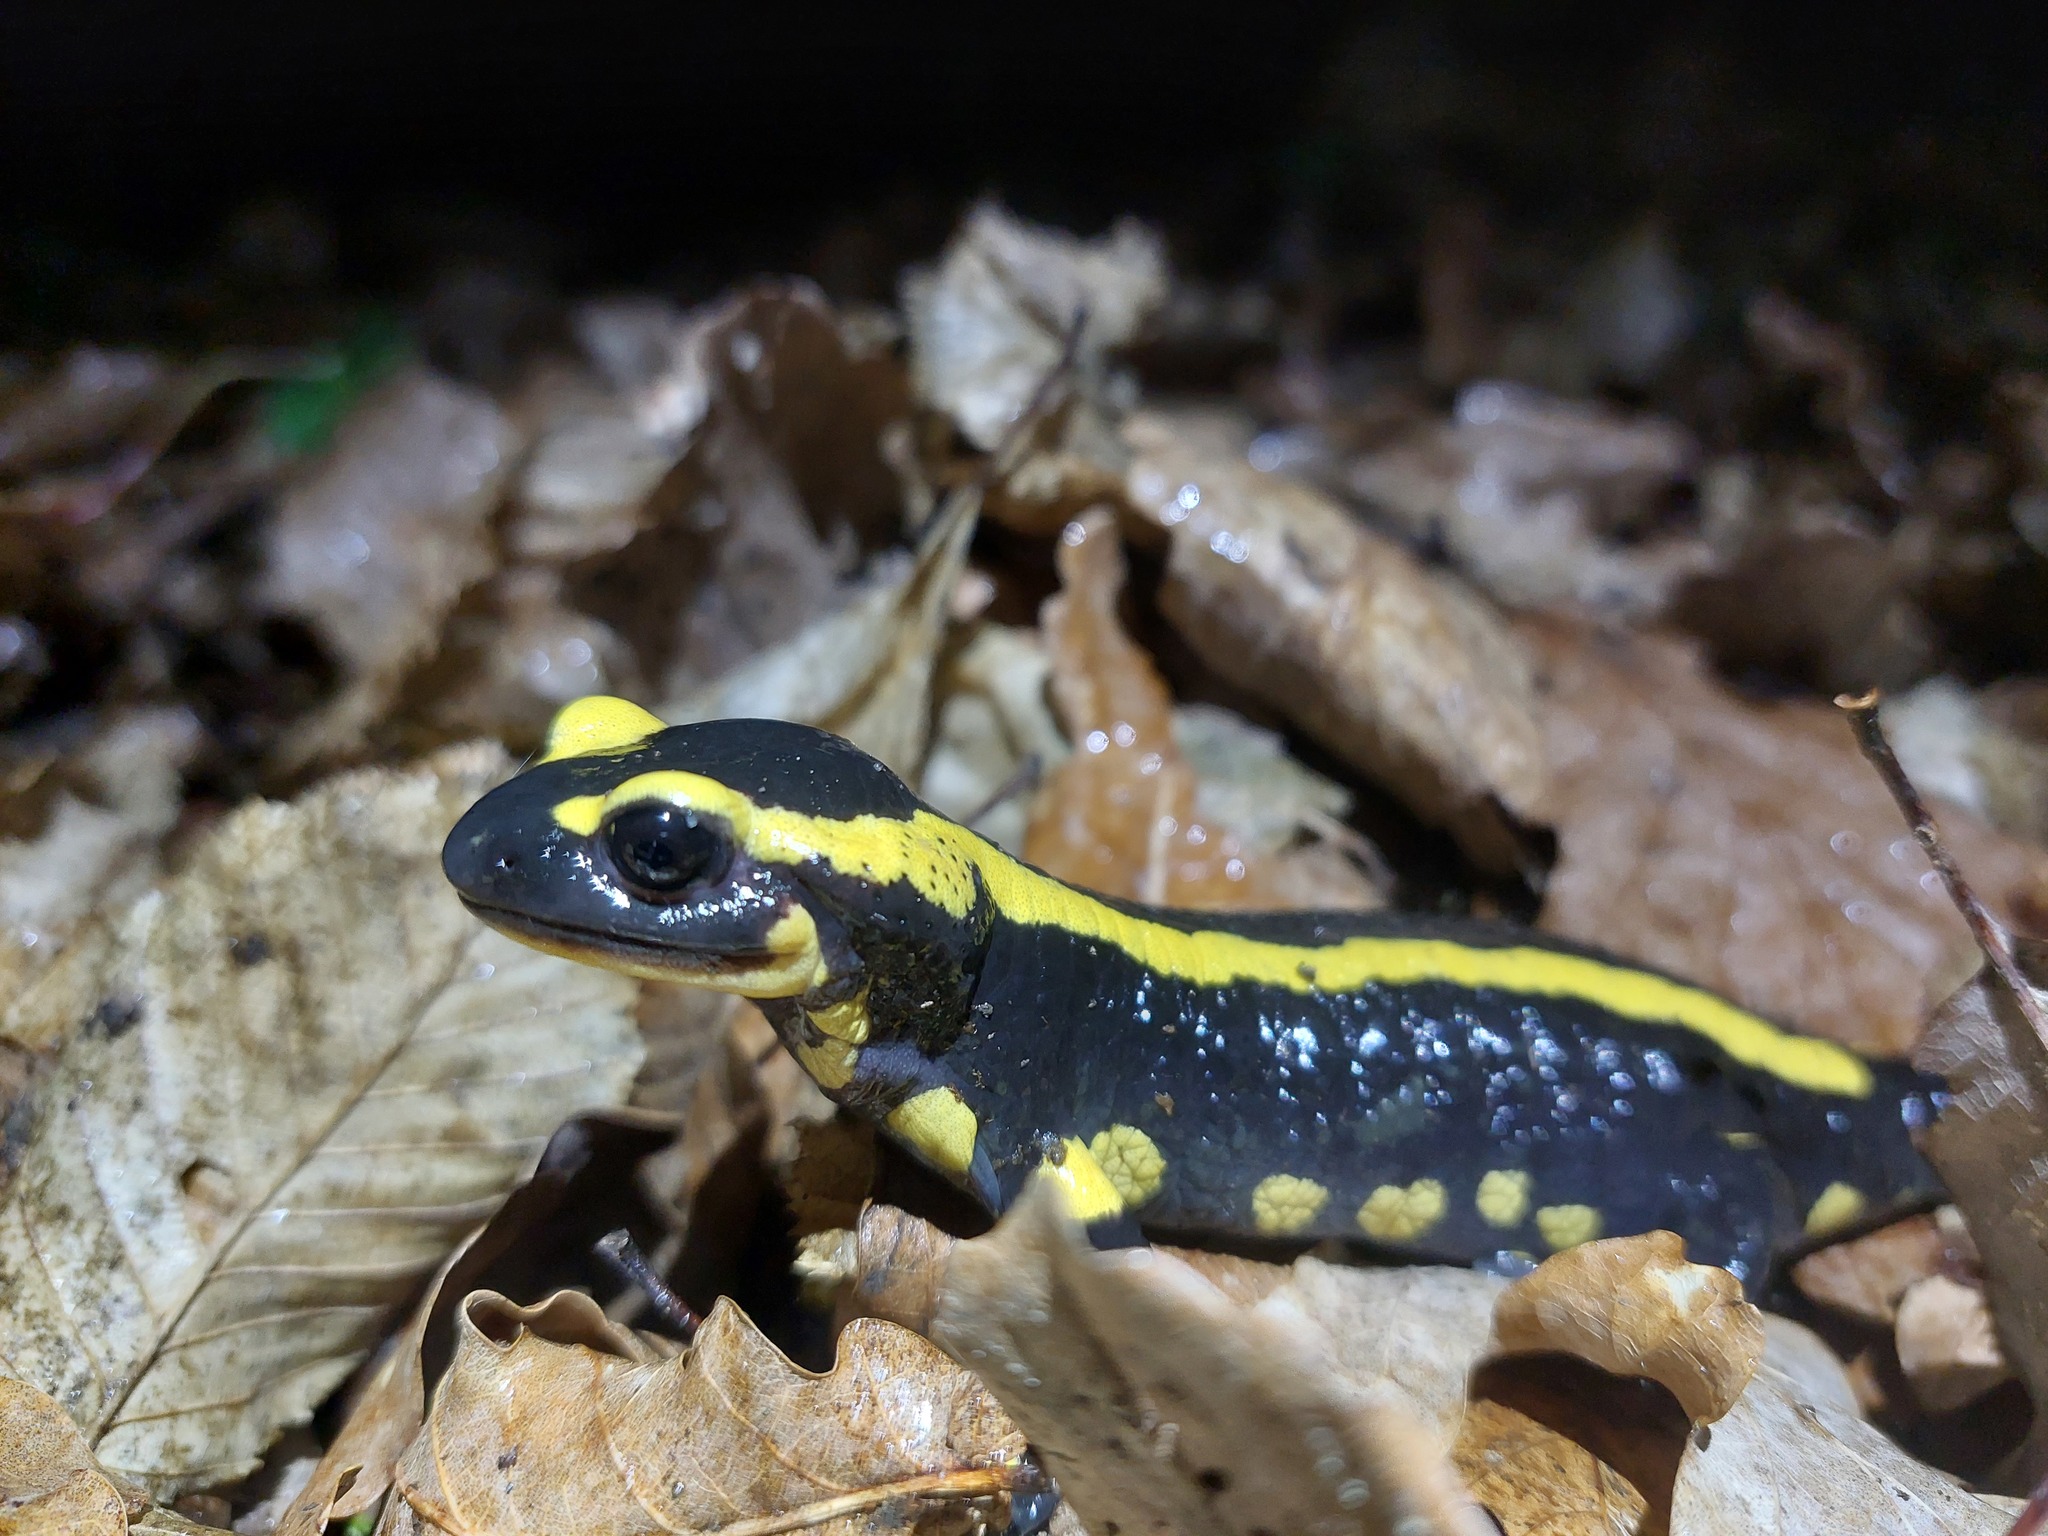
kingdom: Animalia
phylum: Chordata
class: Amphibia
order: Caudata
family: Salamandridae
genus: Salamandra
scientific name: Salamandra salamandra
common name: Fire salamander
